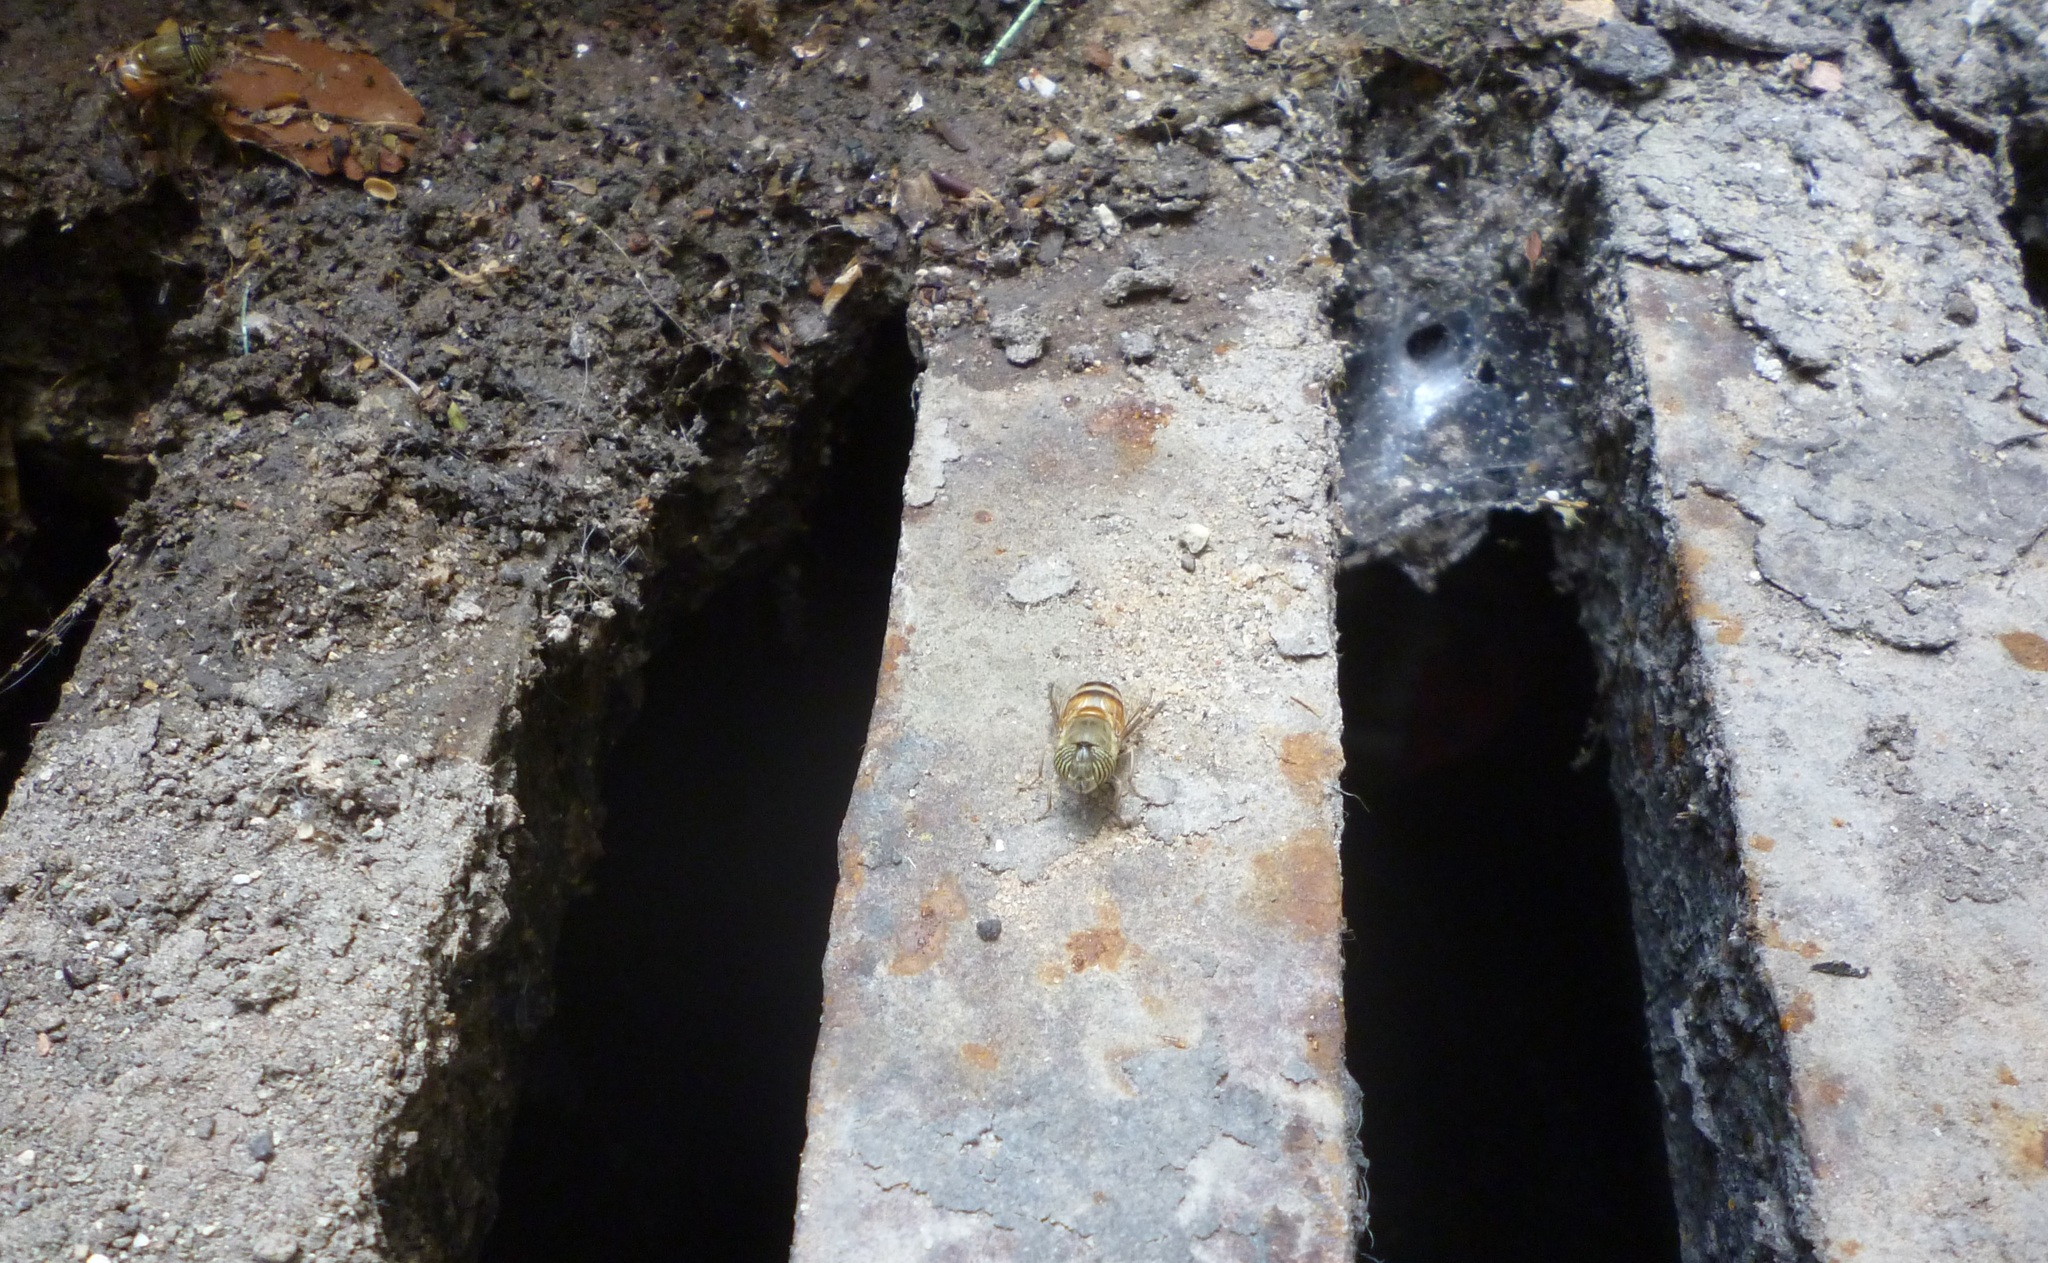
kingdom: Animalia
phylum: Arthropoda
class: Insecta
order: Diptera
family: Syrphidae
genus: Eristalinus
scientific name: Eristalinus taeniops
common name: Syrphid fly
